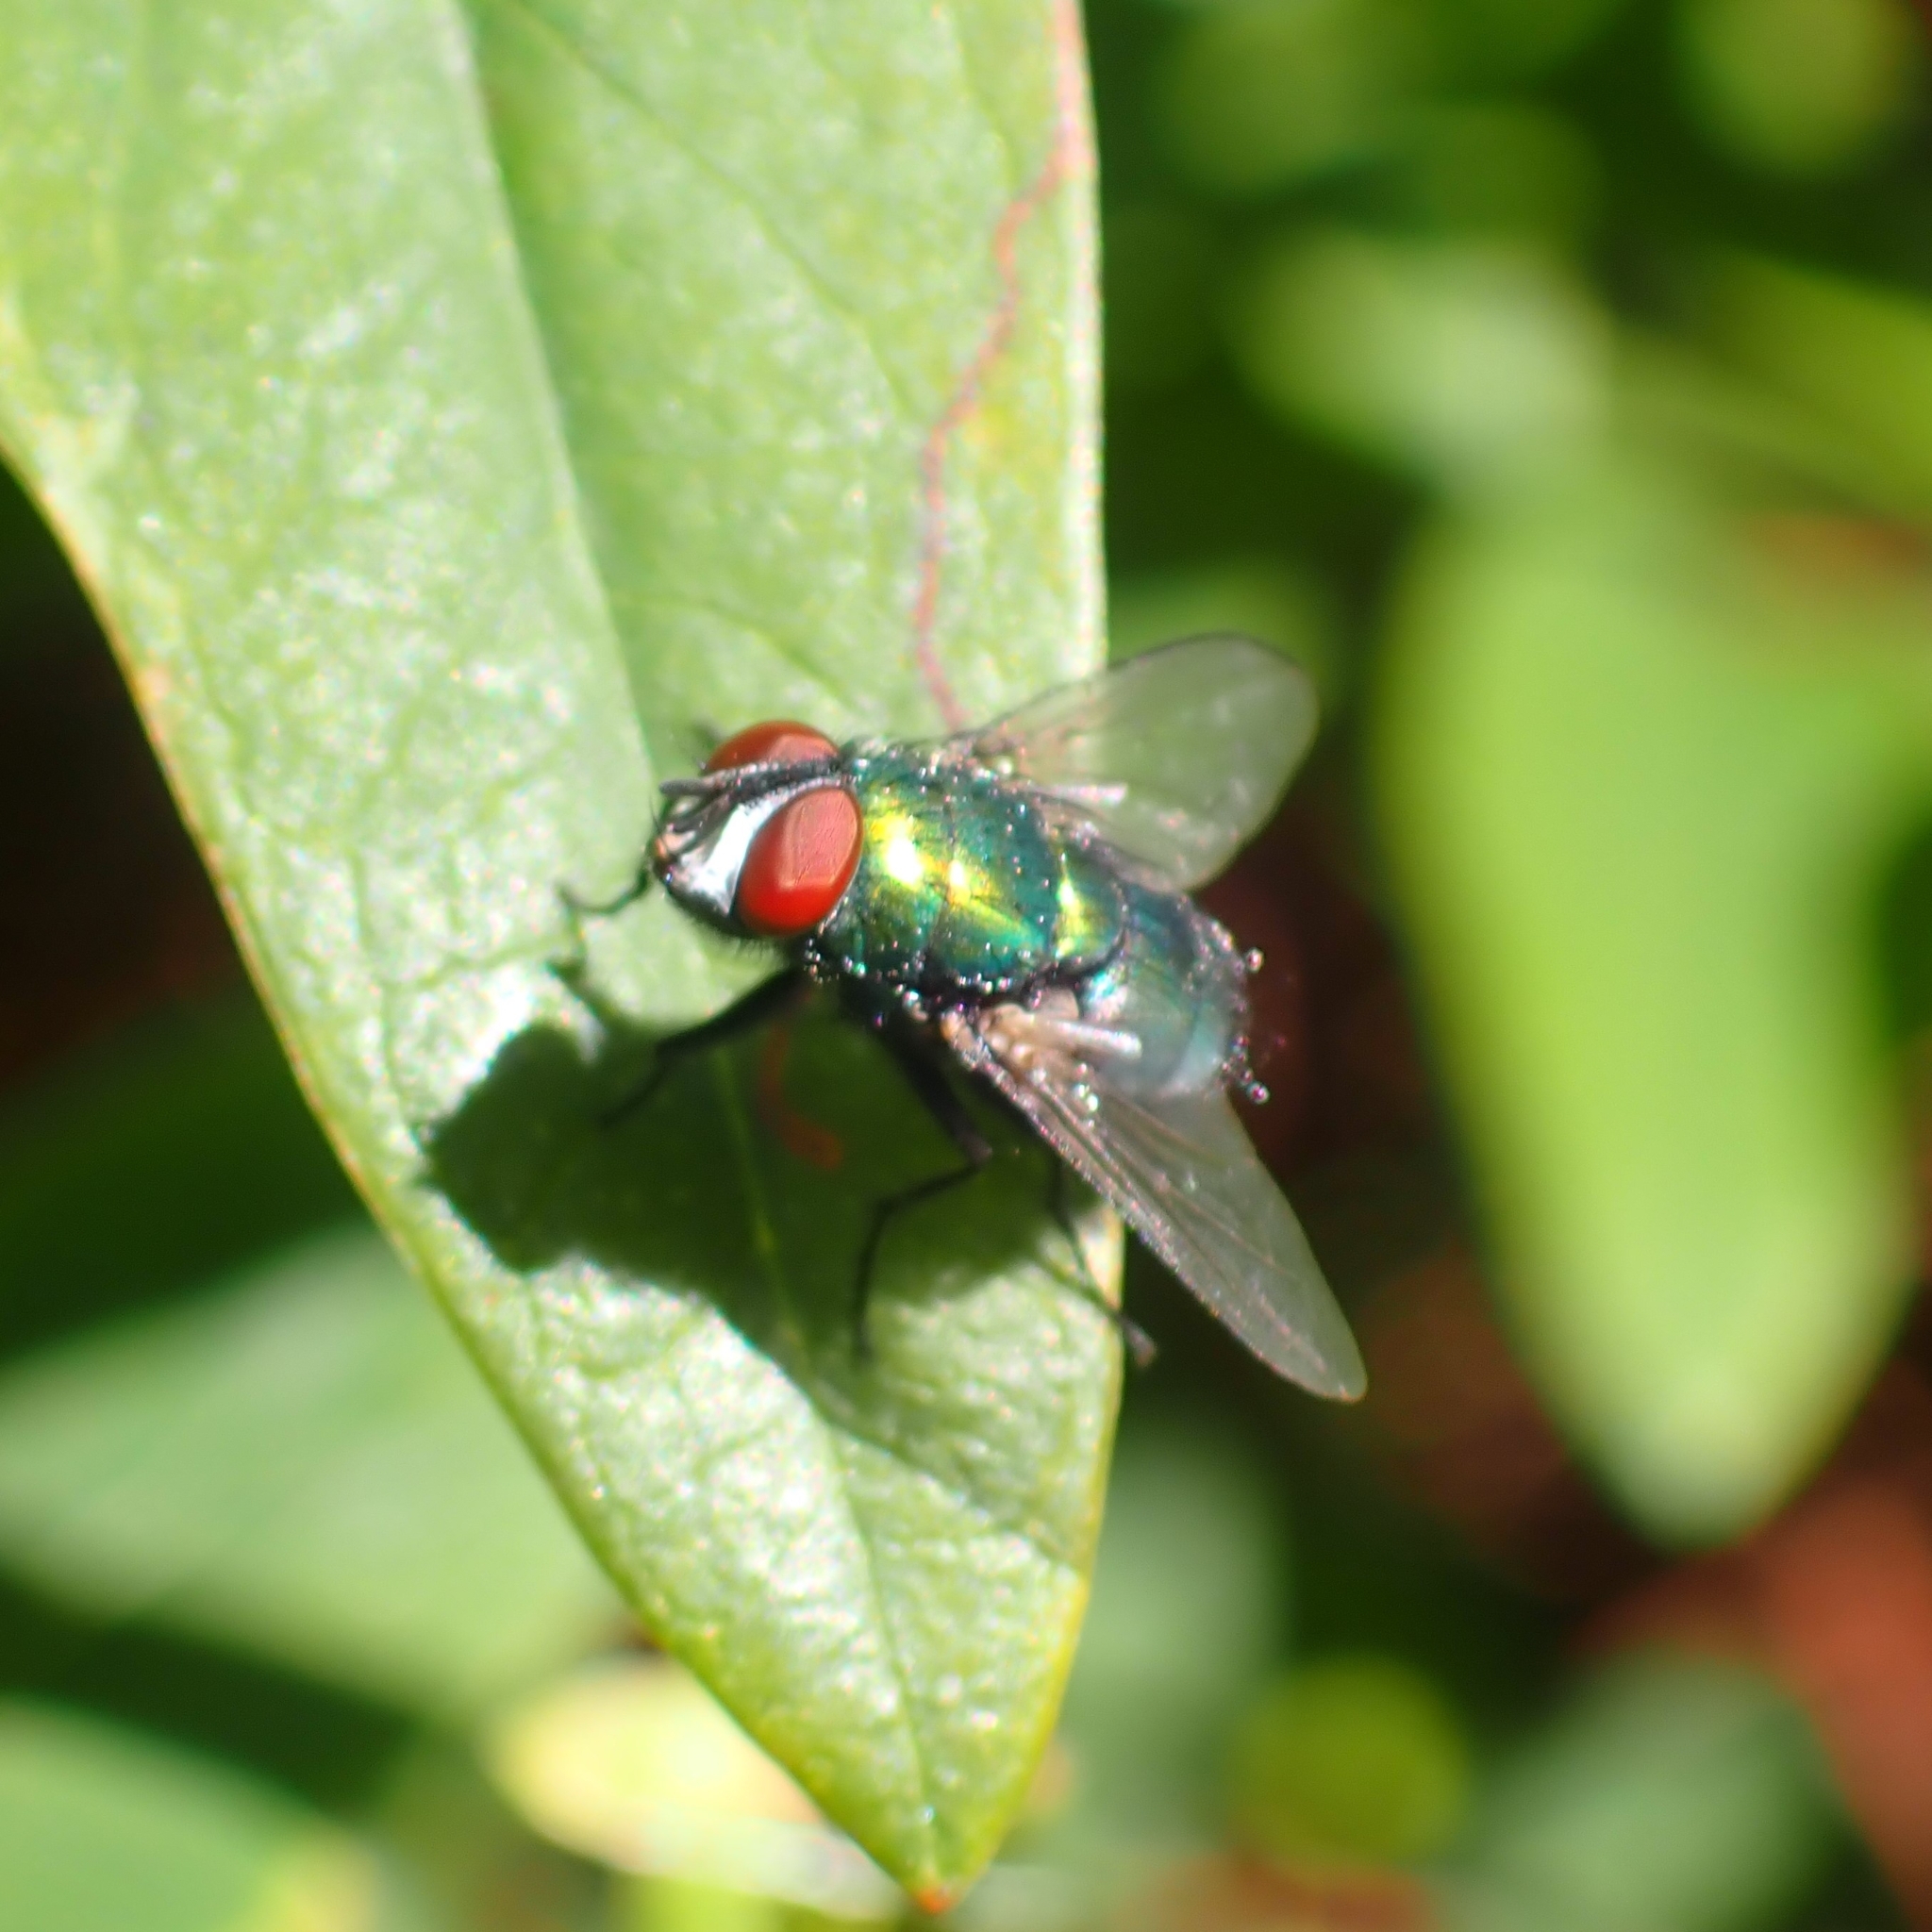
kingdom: Animalia
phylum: Arthropoda
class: Insecta
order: Diptera
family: Calliphoridae
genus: Lucilia
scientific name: Lucilia
